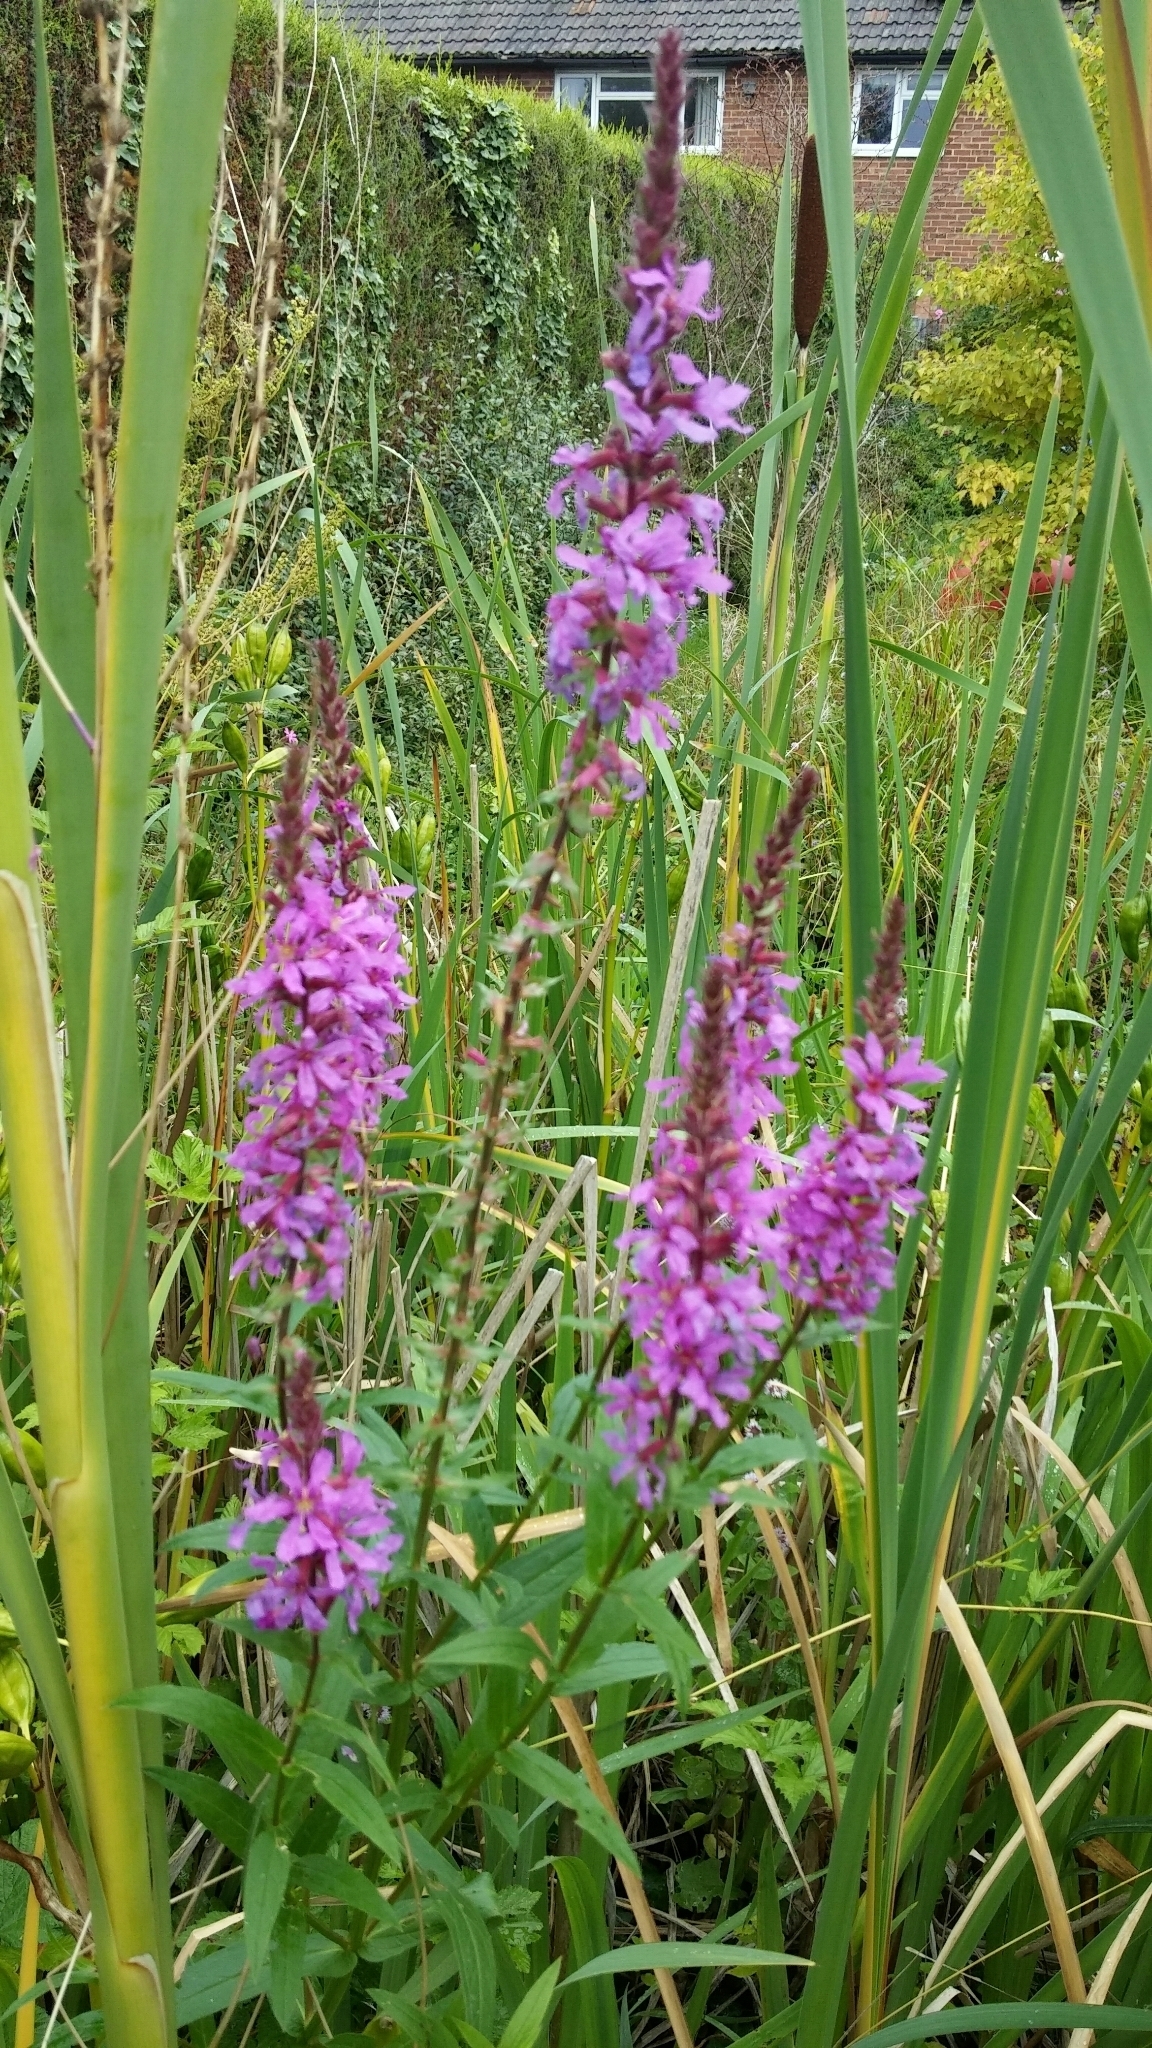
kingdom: Plantae
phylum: Tracheophyta
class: Magnoliopsida
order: Myrtales
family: Lythraceae
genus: Lythrum
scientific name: Lythrum salicaria
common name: Purple loosestrife
